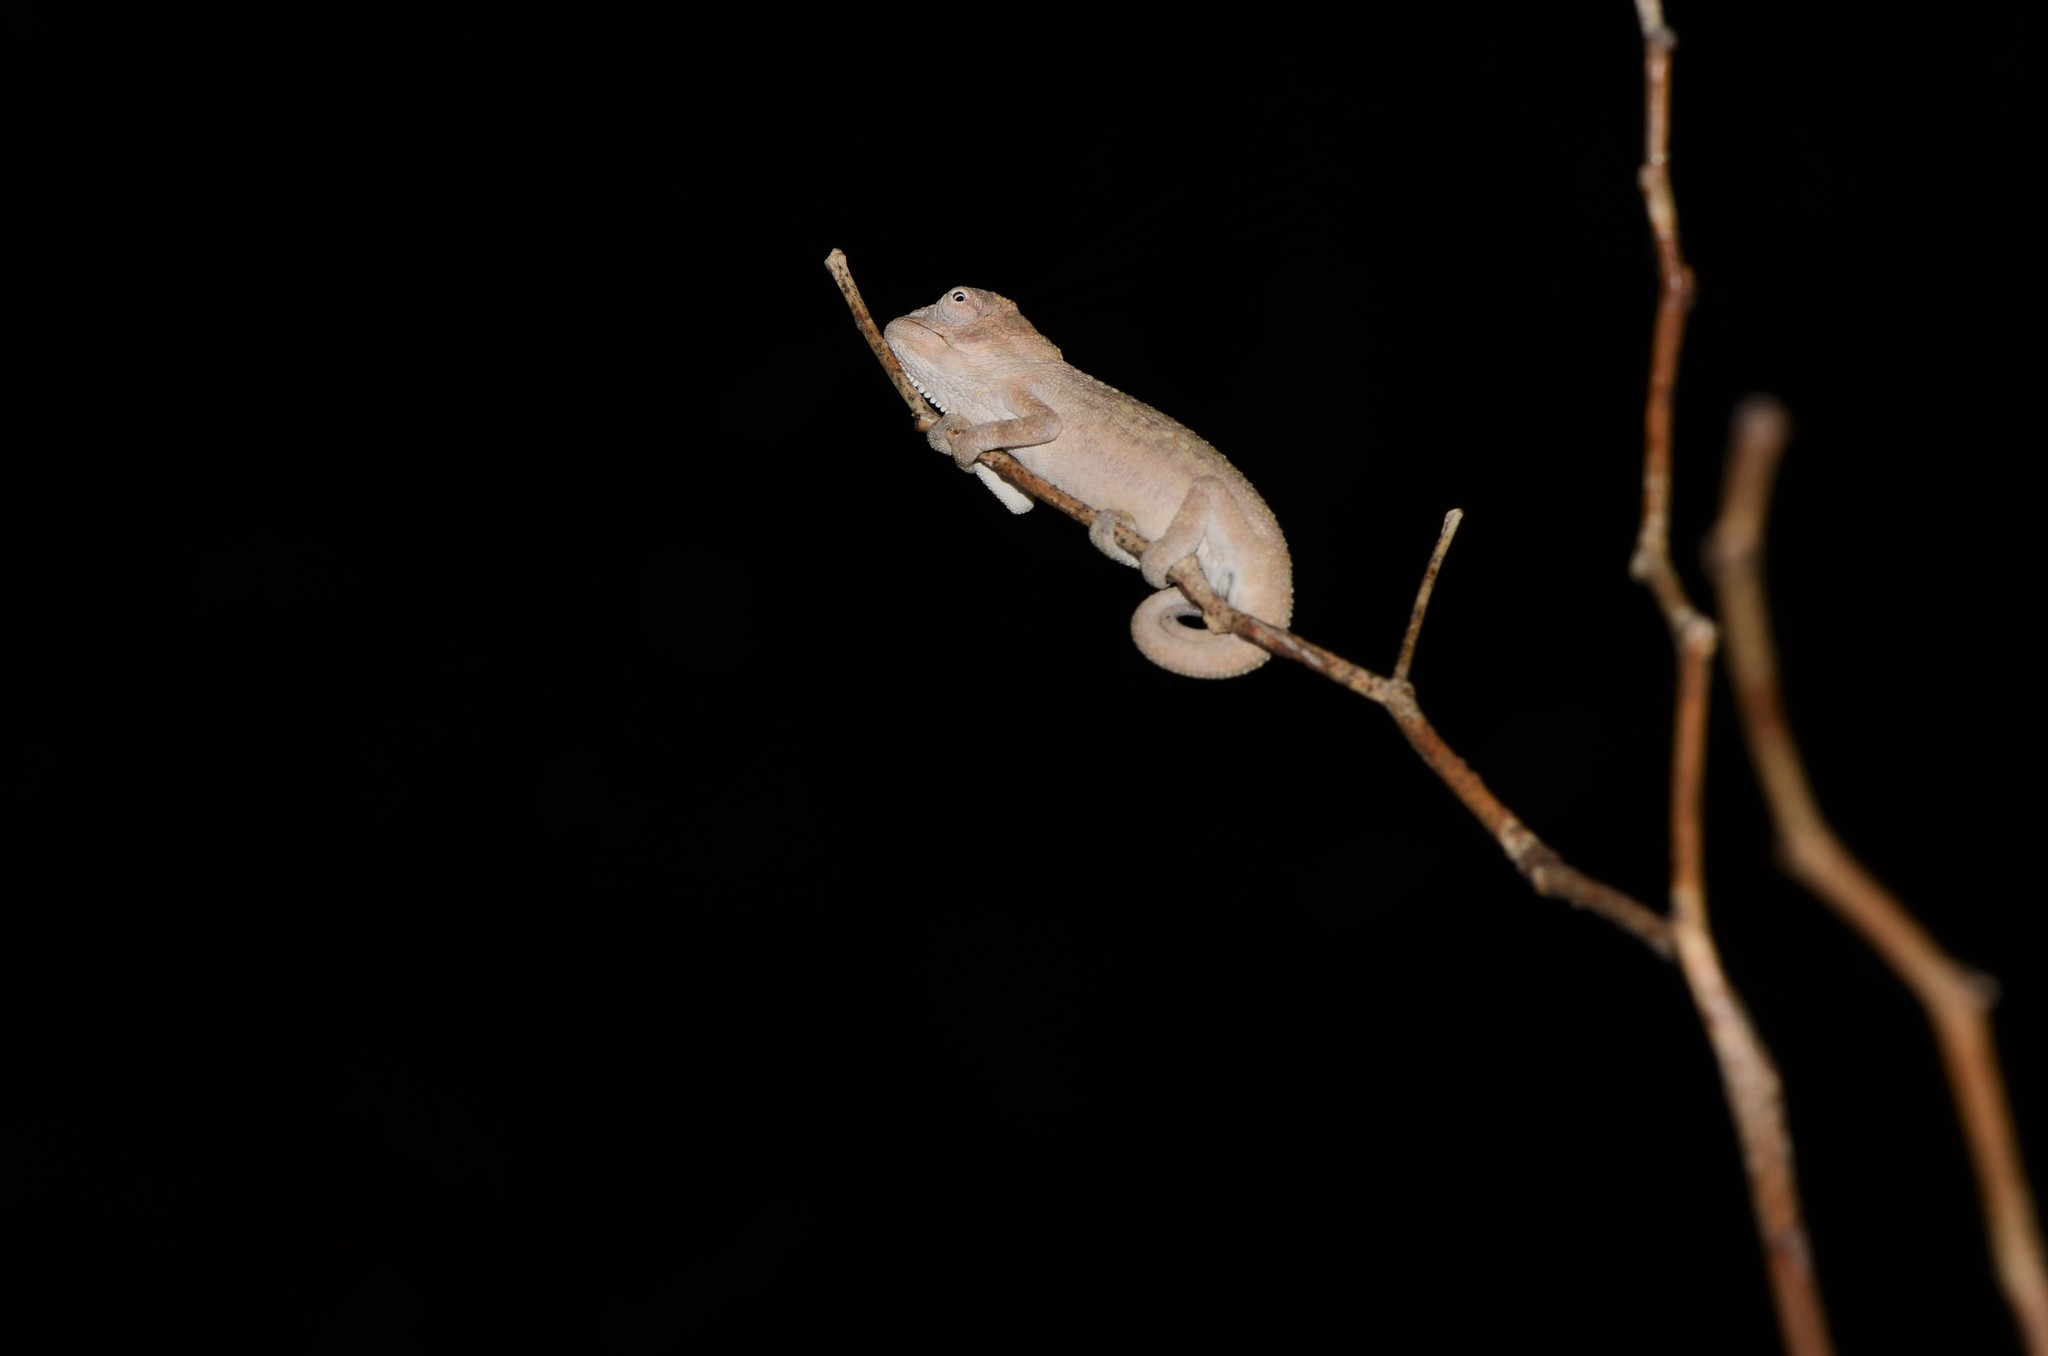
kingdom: Animalia
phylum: Chordata
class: Squamata
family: Chamaeleonidae
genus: Bradypodion
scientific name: Bradypodion pumilum
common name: Cape dwarf chameleon
